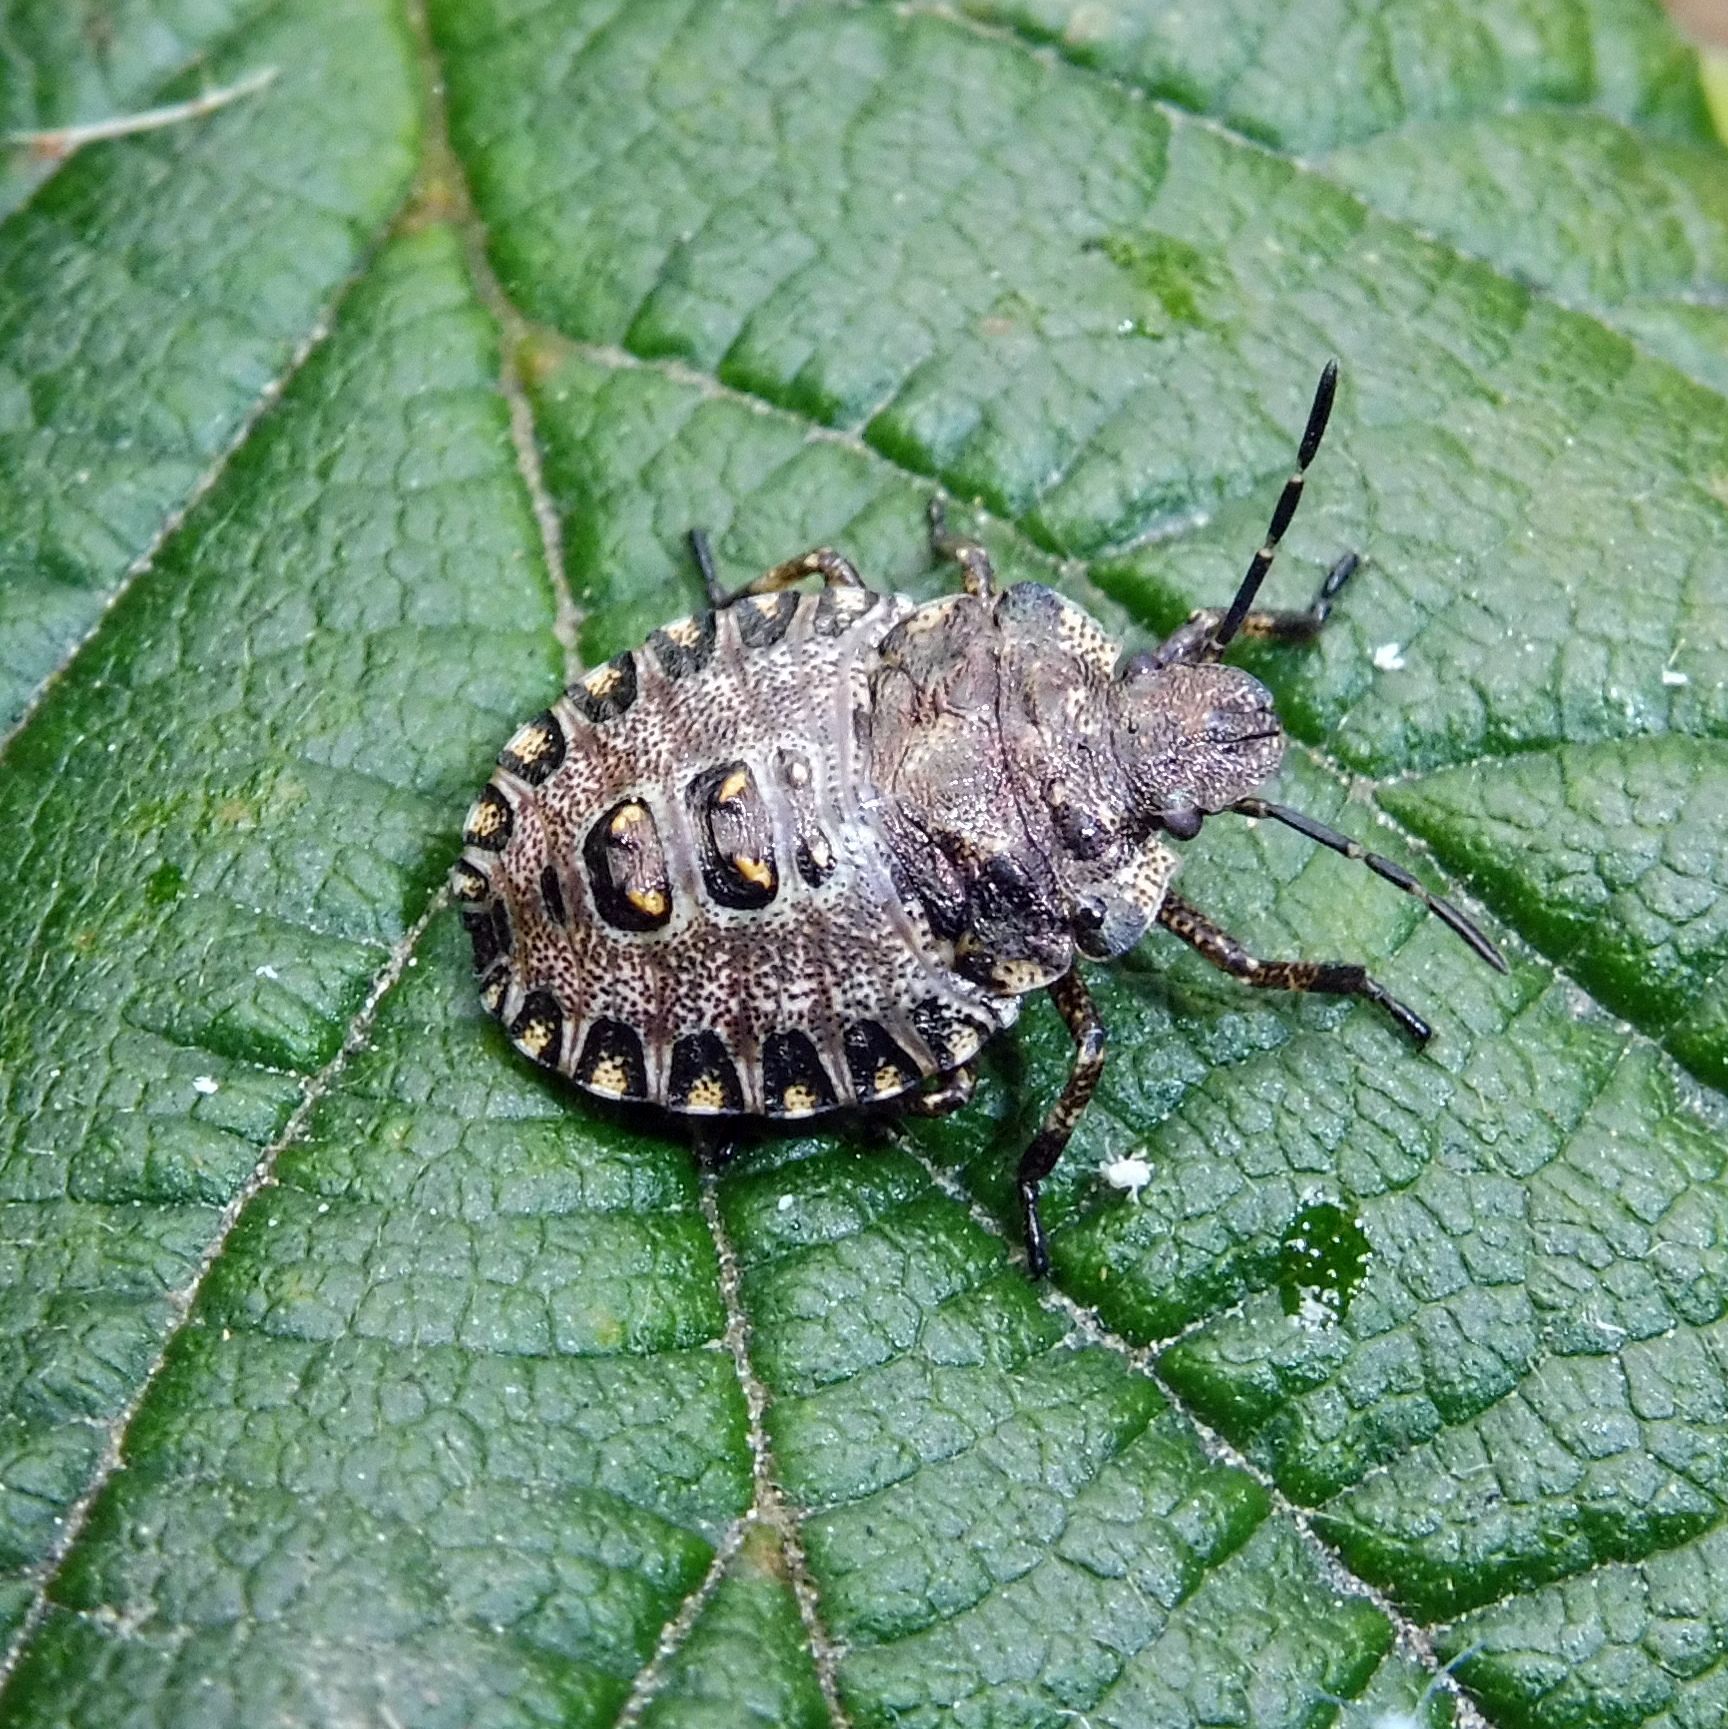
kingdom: Animalia
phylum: Arthropoda
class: Insecta
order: Hemiptera
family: Pentatomidae
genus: Pentatoma
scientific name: Pentatoma rufipes
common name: Forest bug
